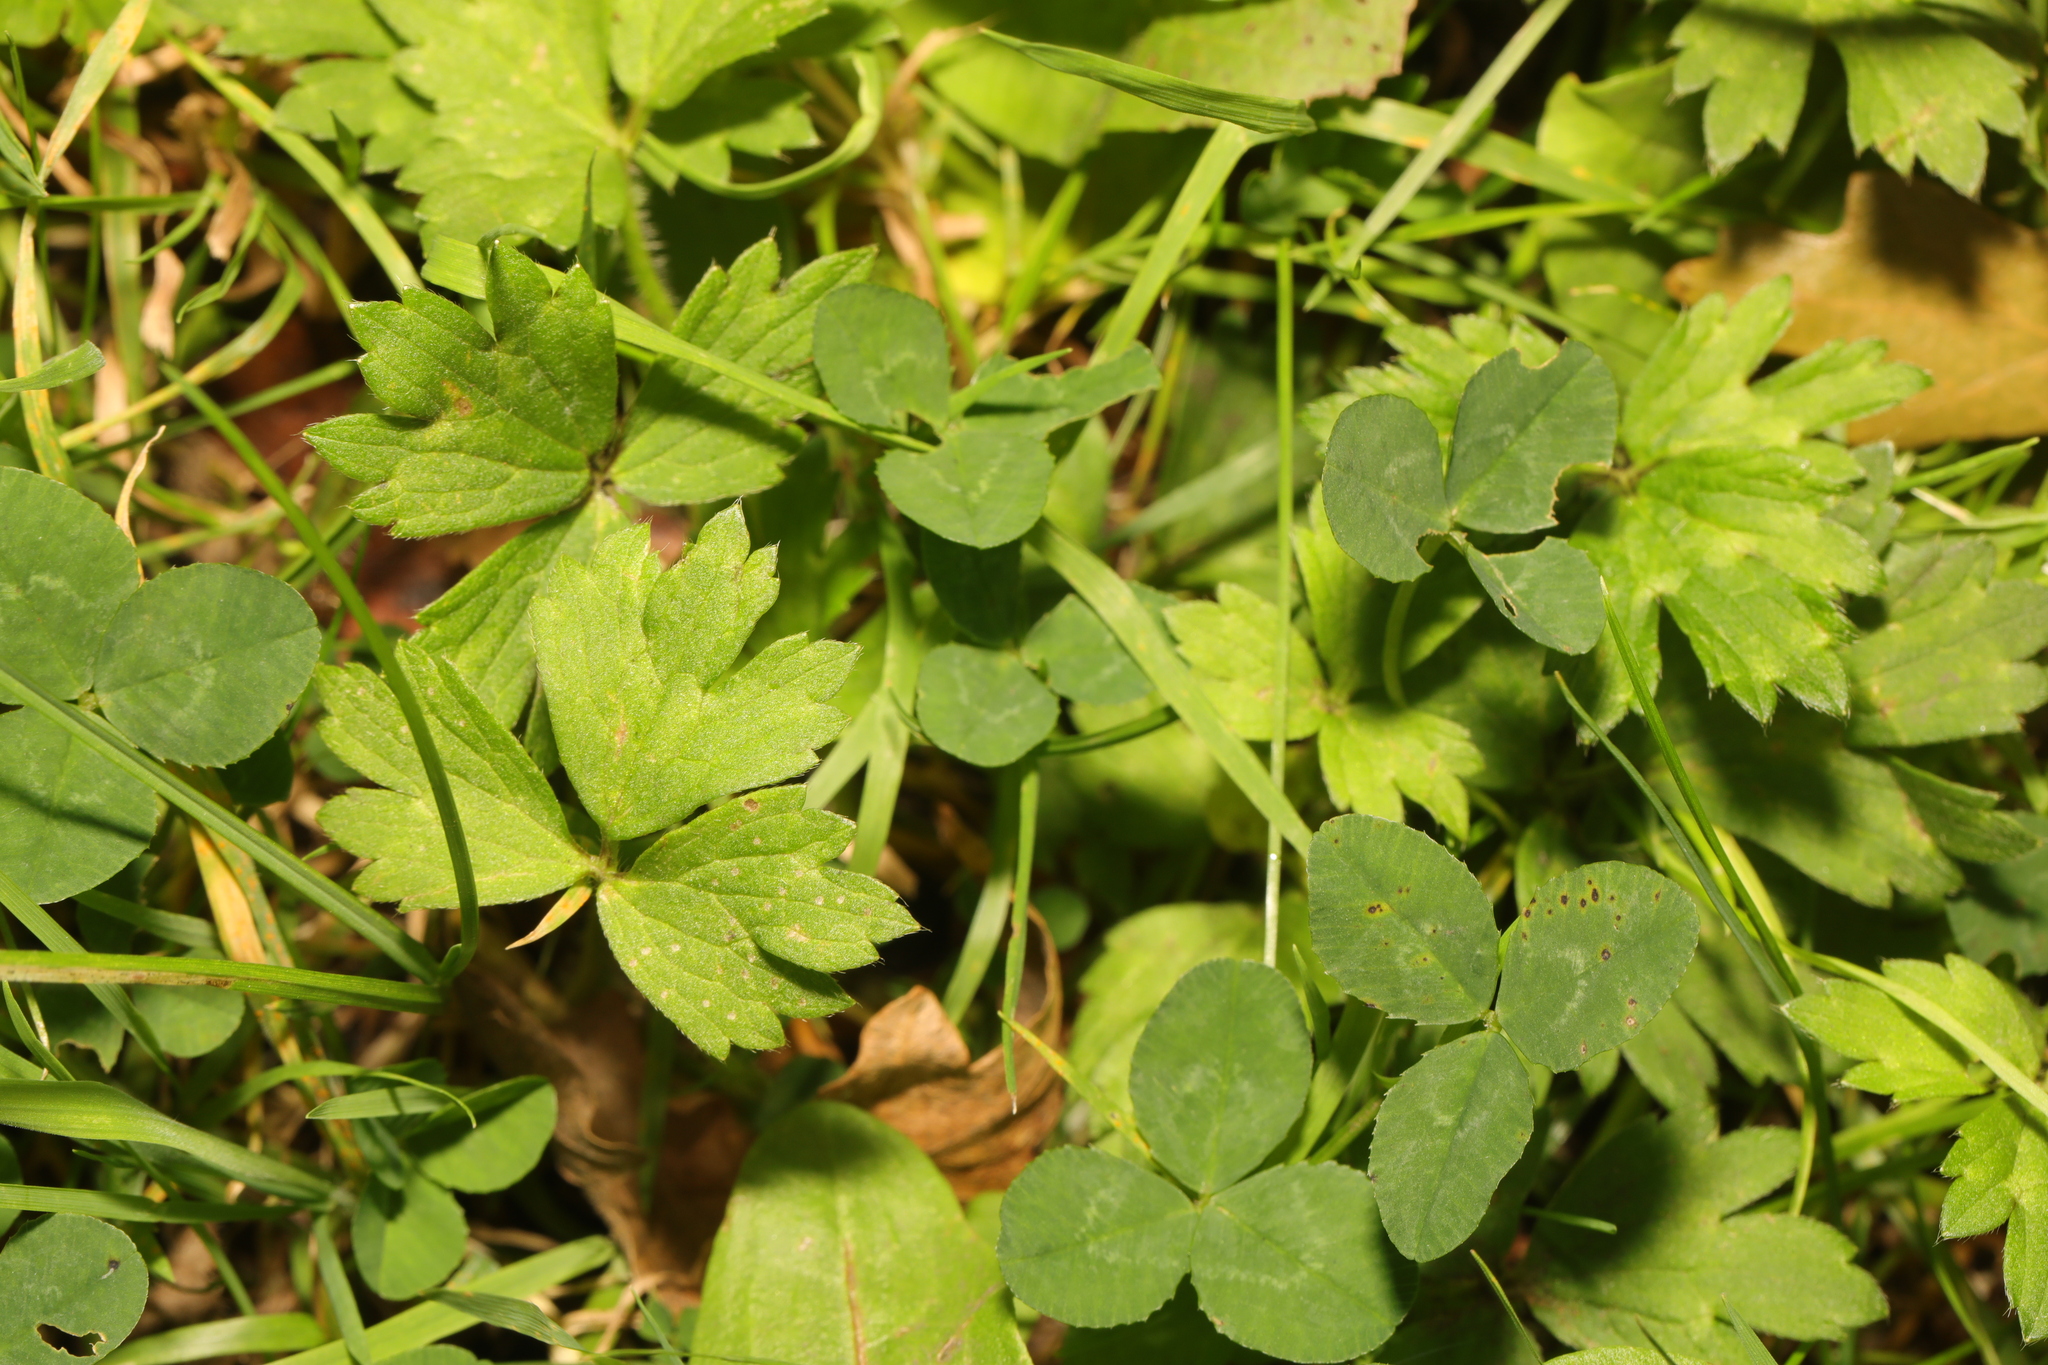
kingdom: Plantae
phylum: Tracheophyta
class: Magnoliopsida
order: Ranunculales
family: Ranunculaceae
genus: Ranunculus
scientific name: Ranunculus repens
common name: Creeping buttercup
